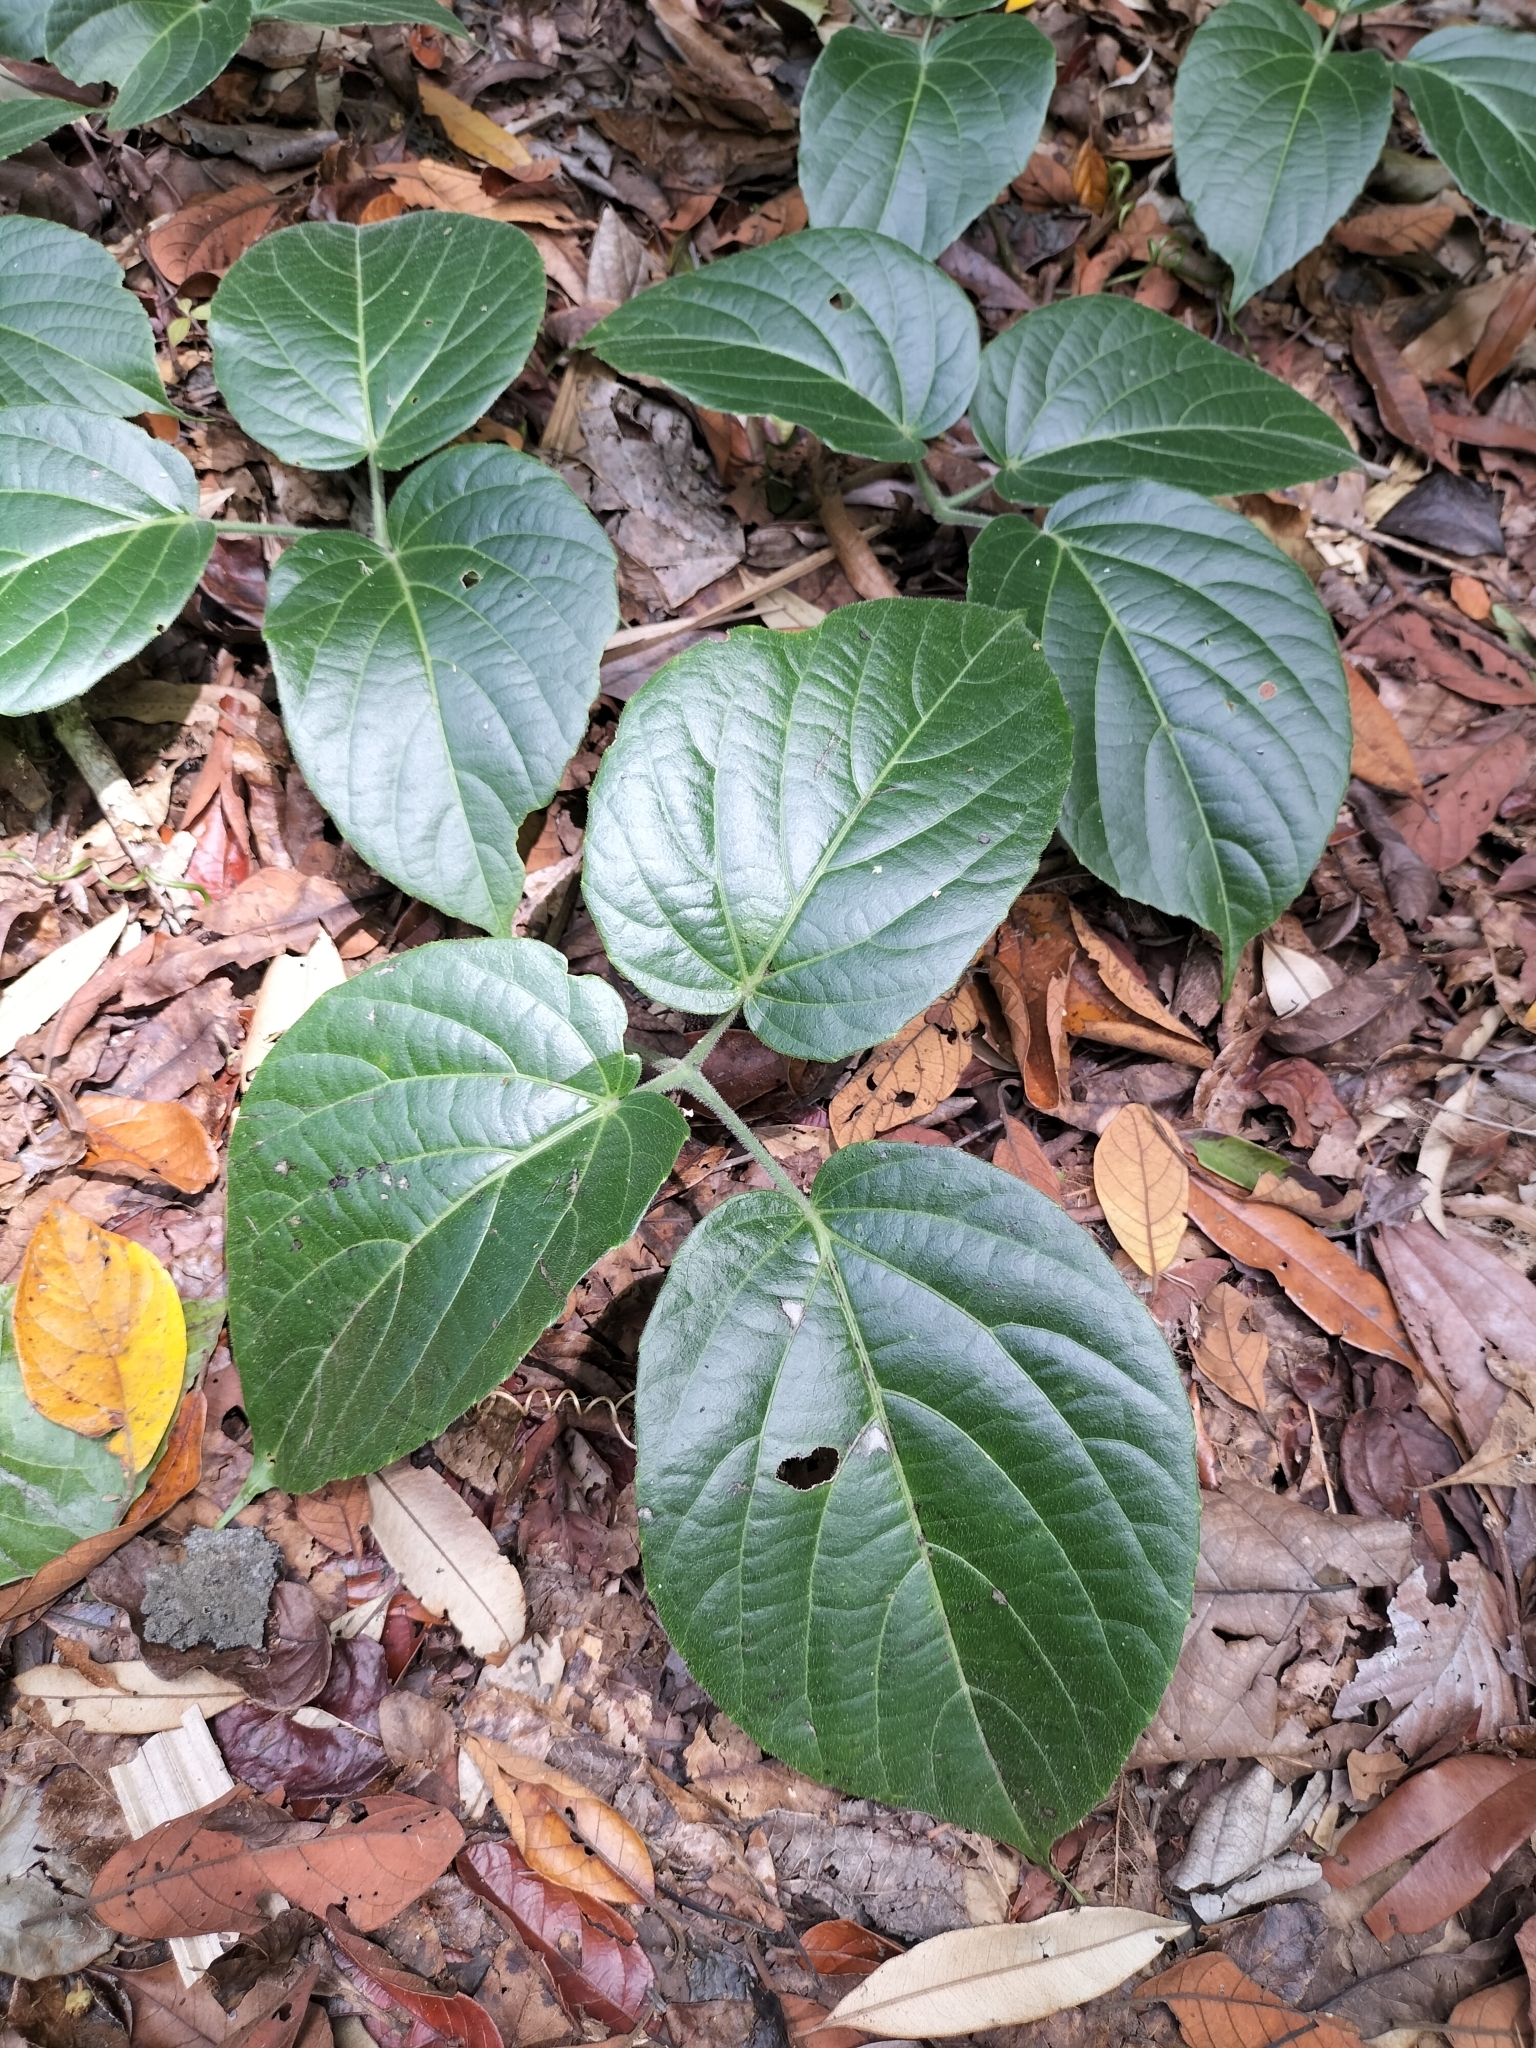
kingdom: Plantae
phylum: Tracheophyta
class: Magnoliopsida
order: Vitales
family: Vitaceae
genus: Cayratia
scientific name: Cayratia saponaria
